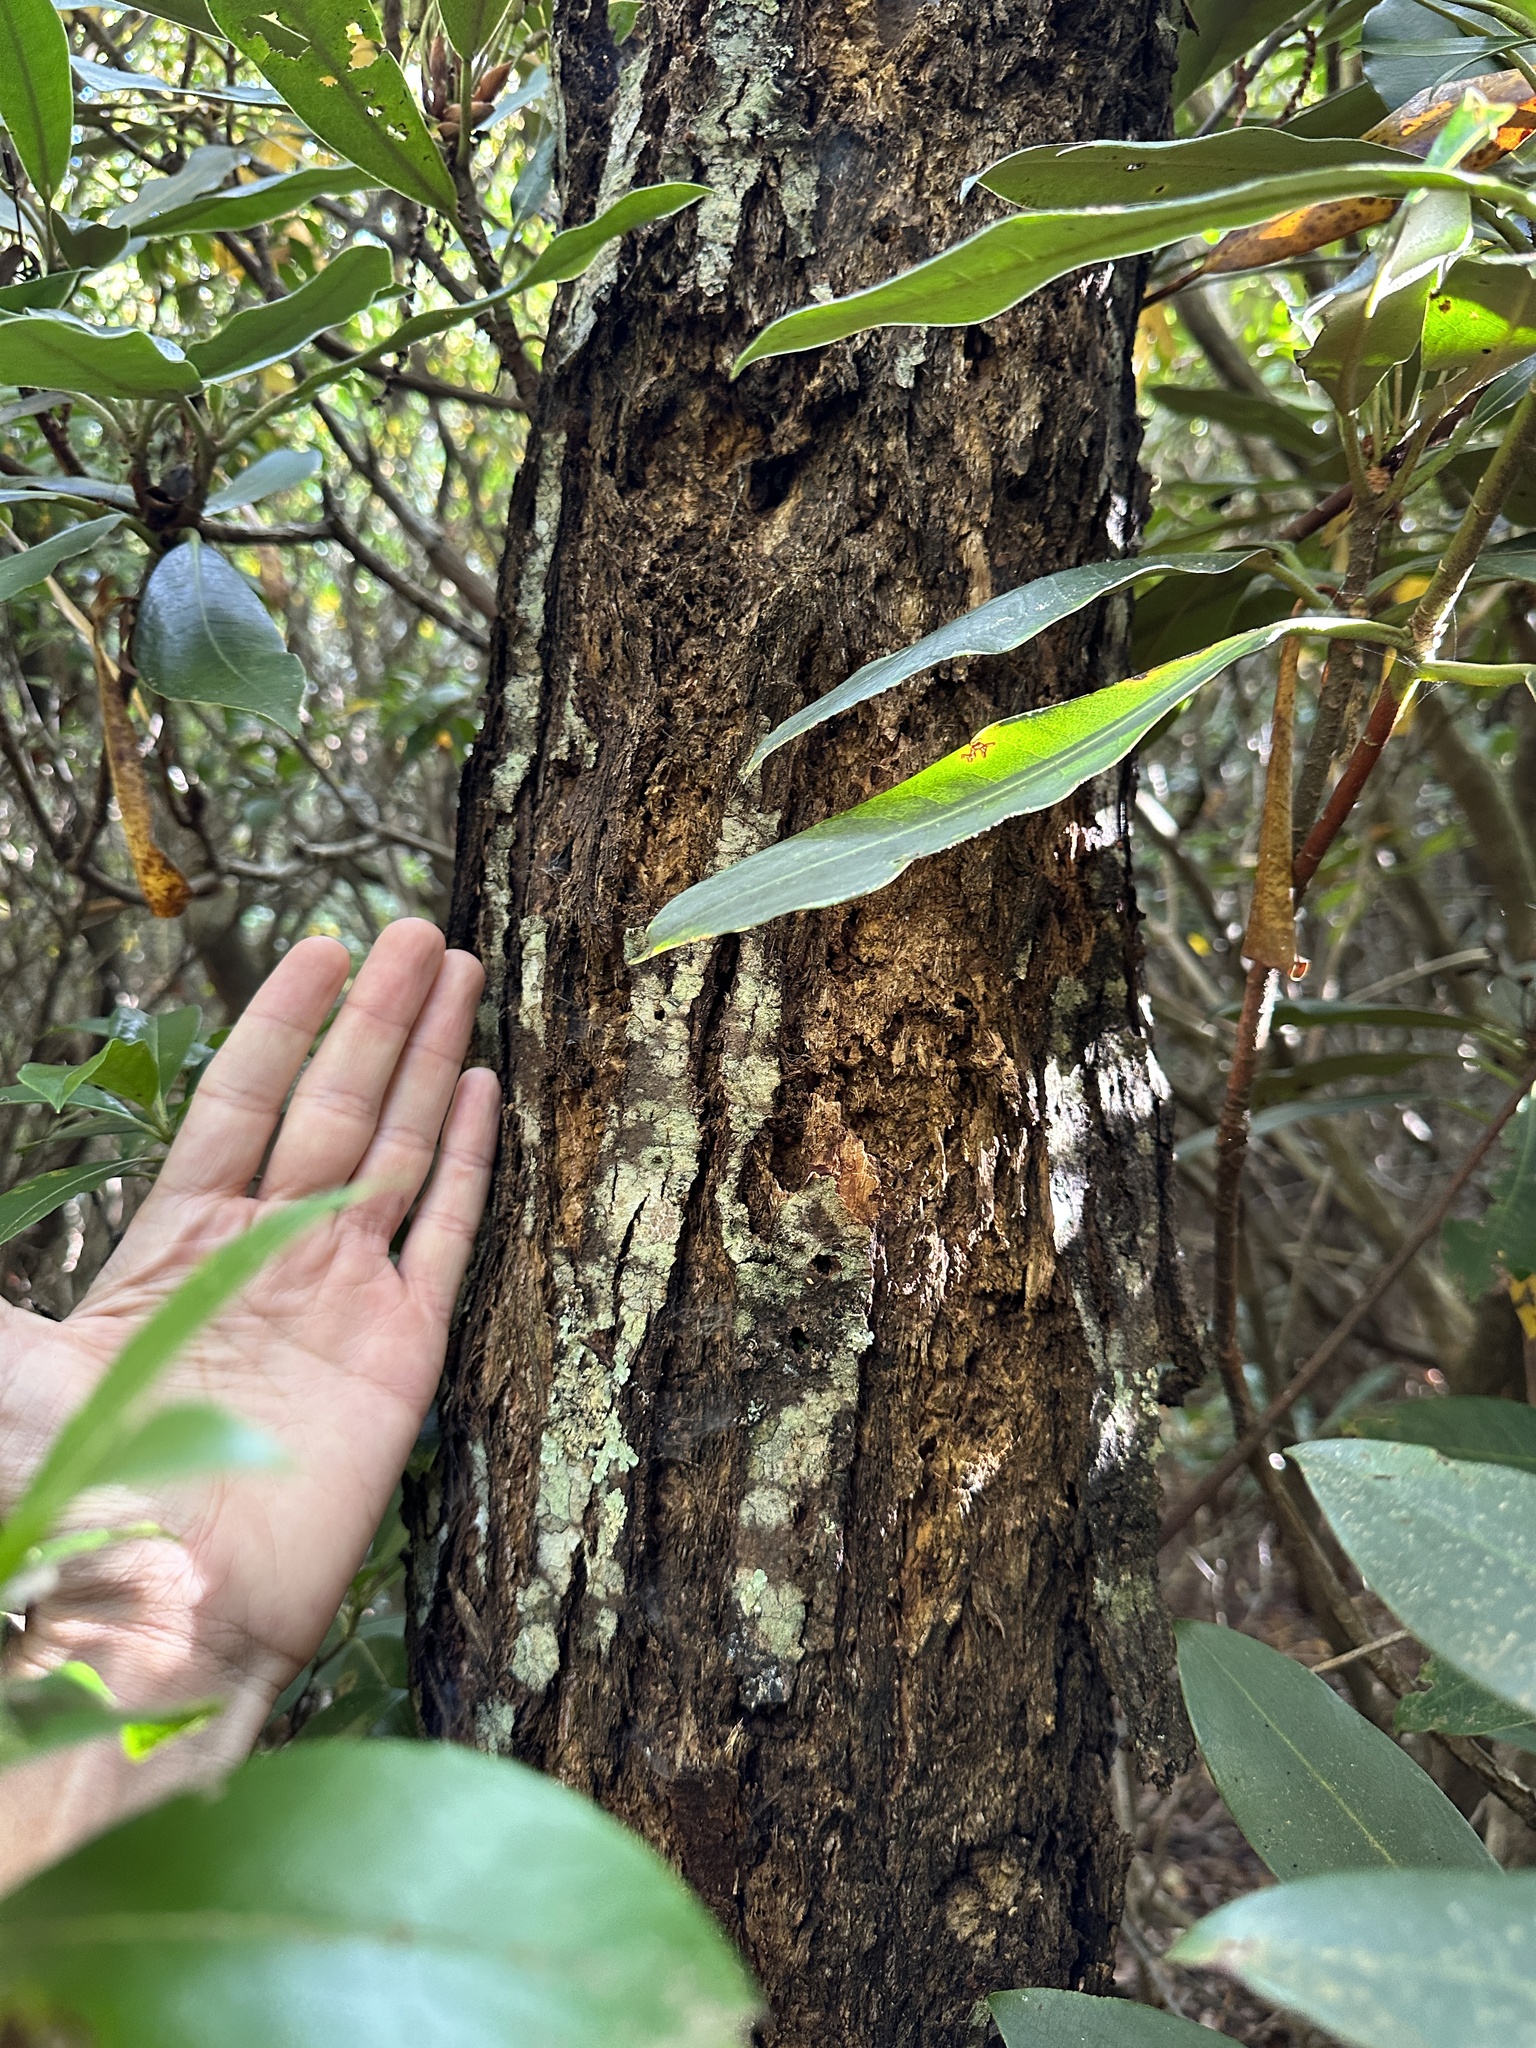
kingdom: Plantae
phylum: Tracheophyta
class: Magnoliopsida
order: Fagales
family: Fagaceae
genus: Castanea
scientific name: Castanea dentata
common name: American chestnut
